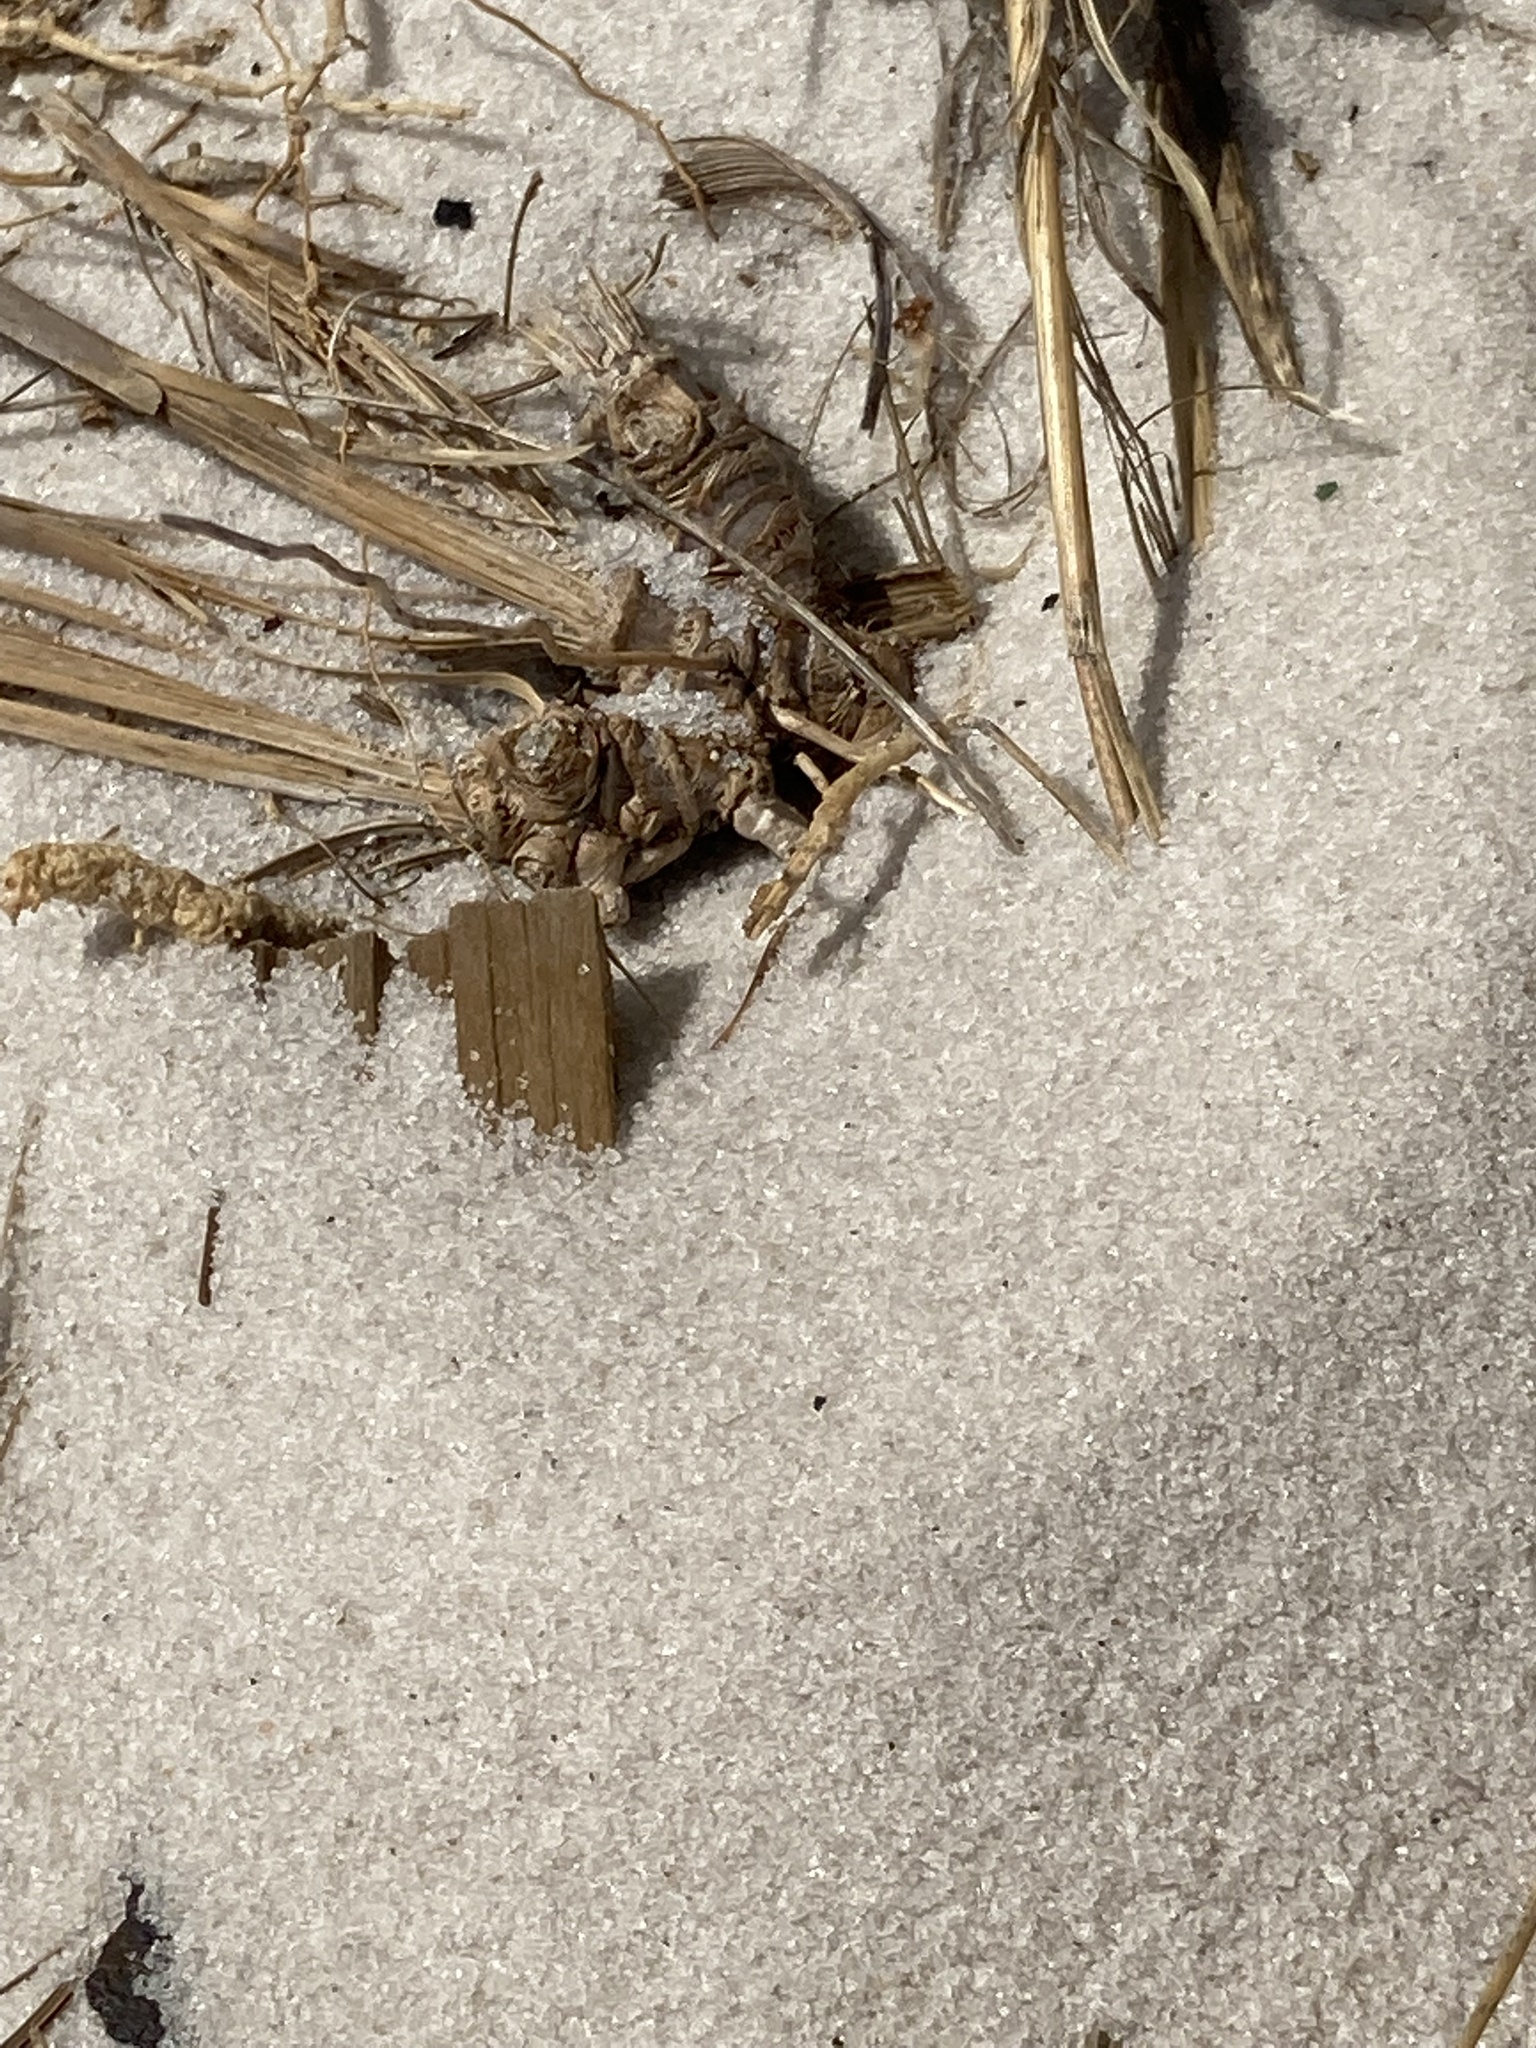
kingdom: Animalia
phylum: Arthropoda
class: Insecta
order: Hymenoptera
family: Formicidae
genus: Dorymyrmex
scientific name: Dorymyrmex grandulus
